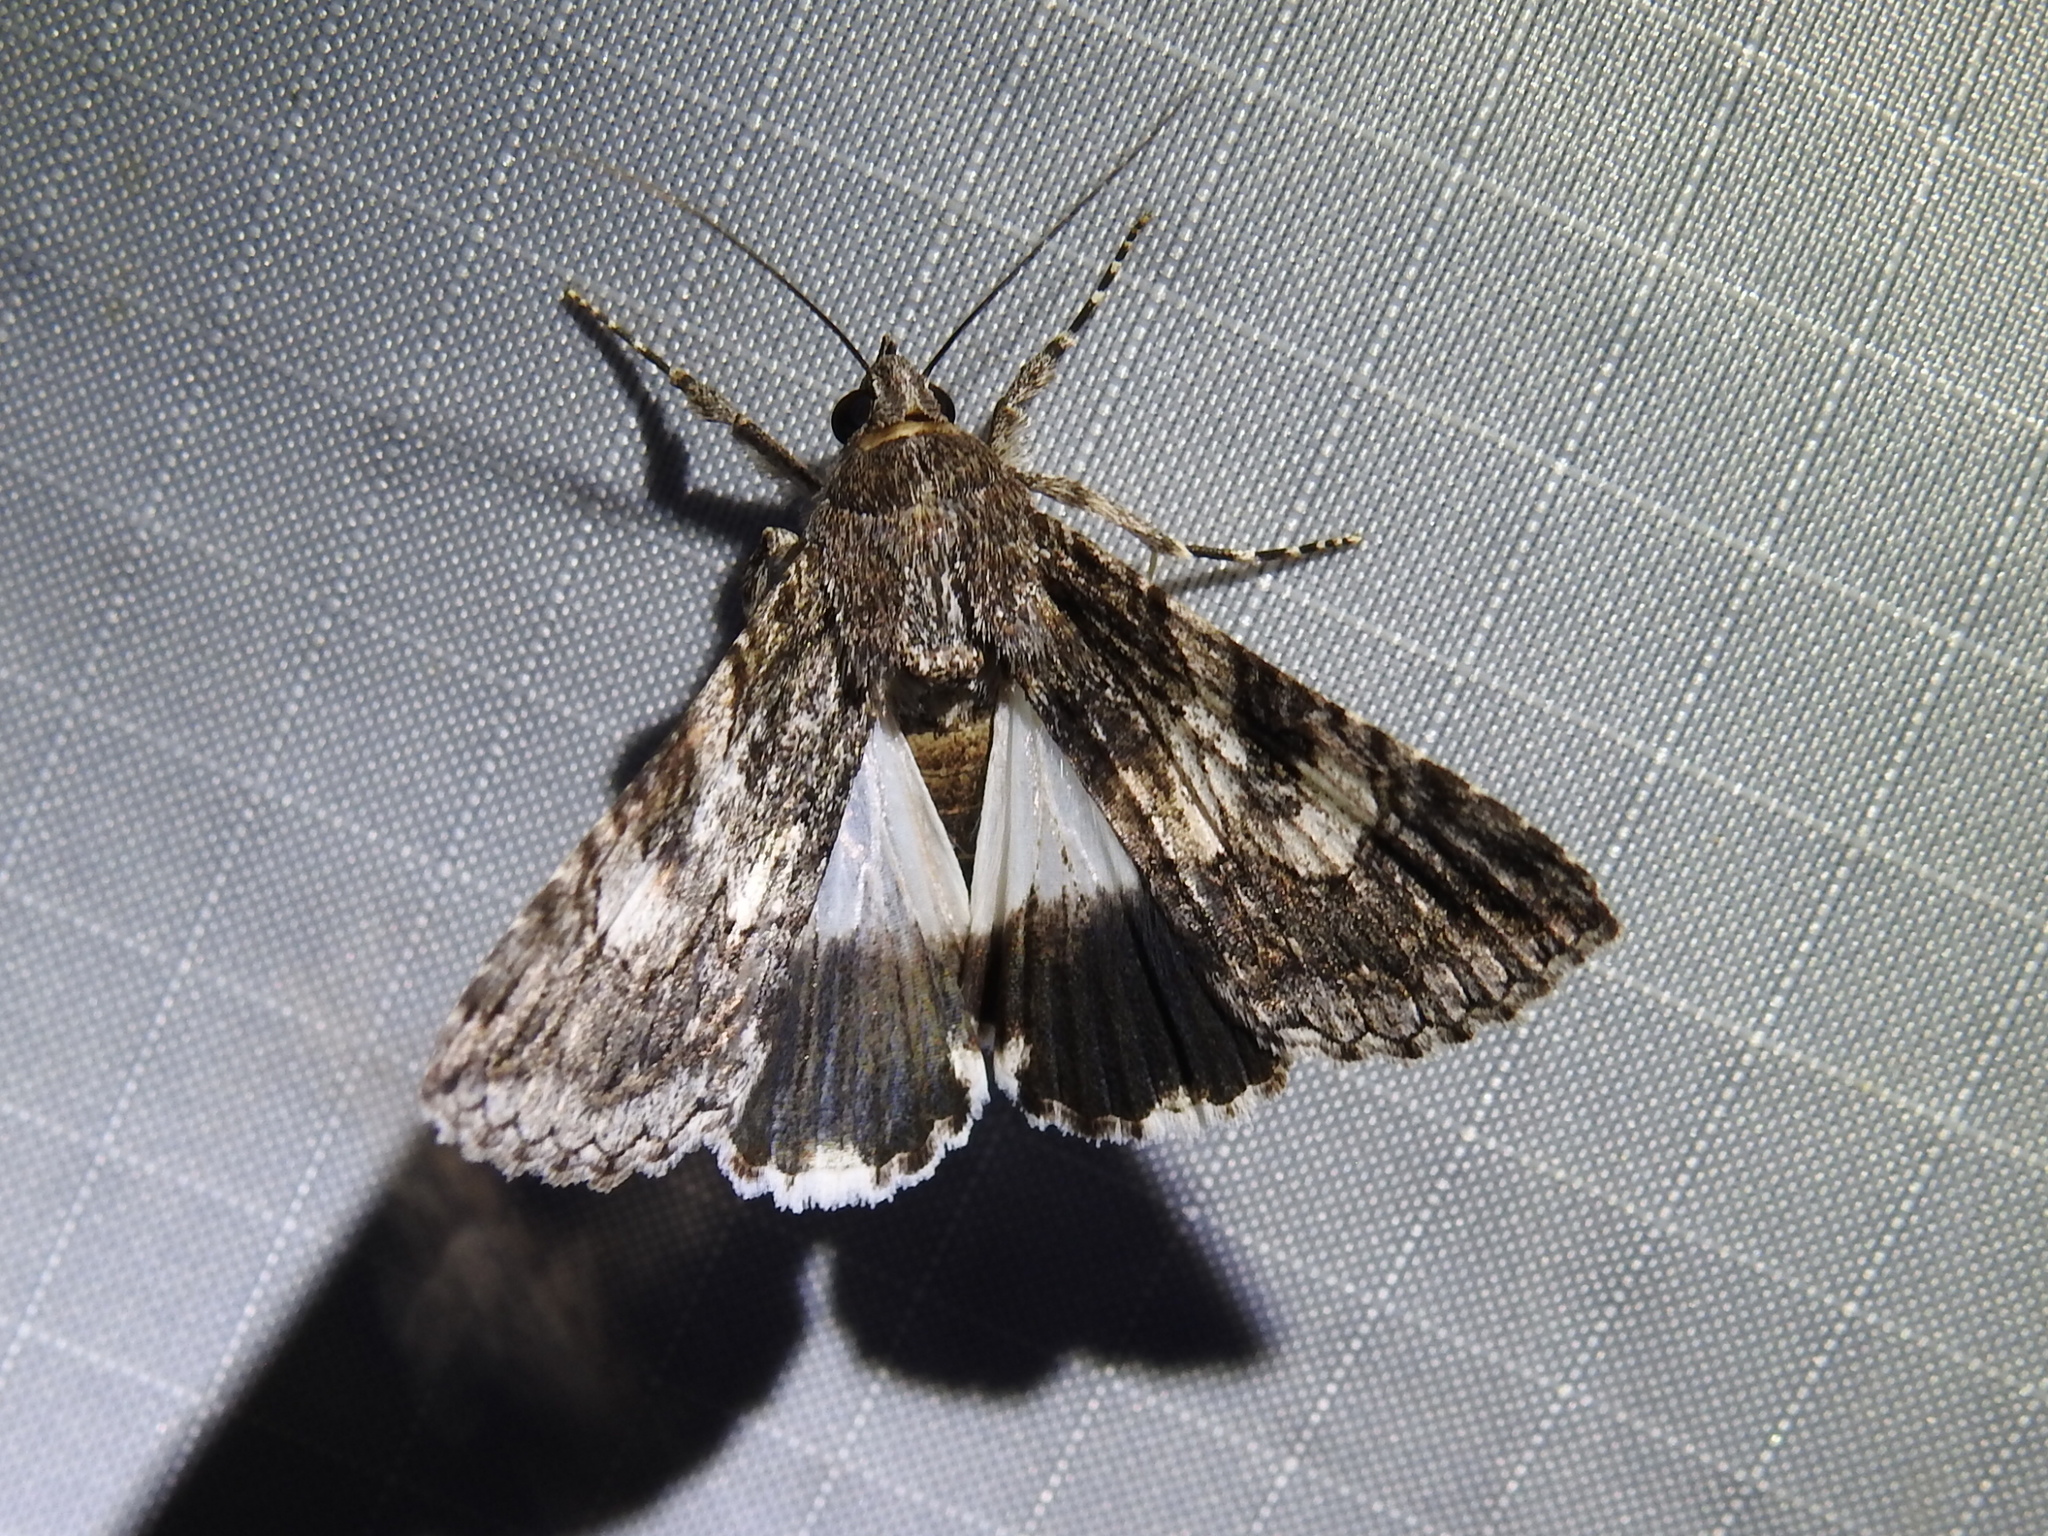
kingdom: Animalia
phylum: Arthropoda
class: Insecta
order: Lepidoptera
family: Erebidae
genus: Melipotis
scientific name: Melipotis jucunda
